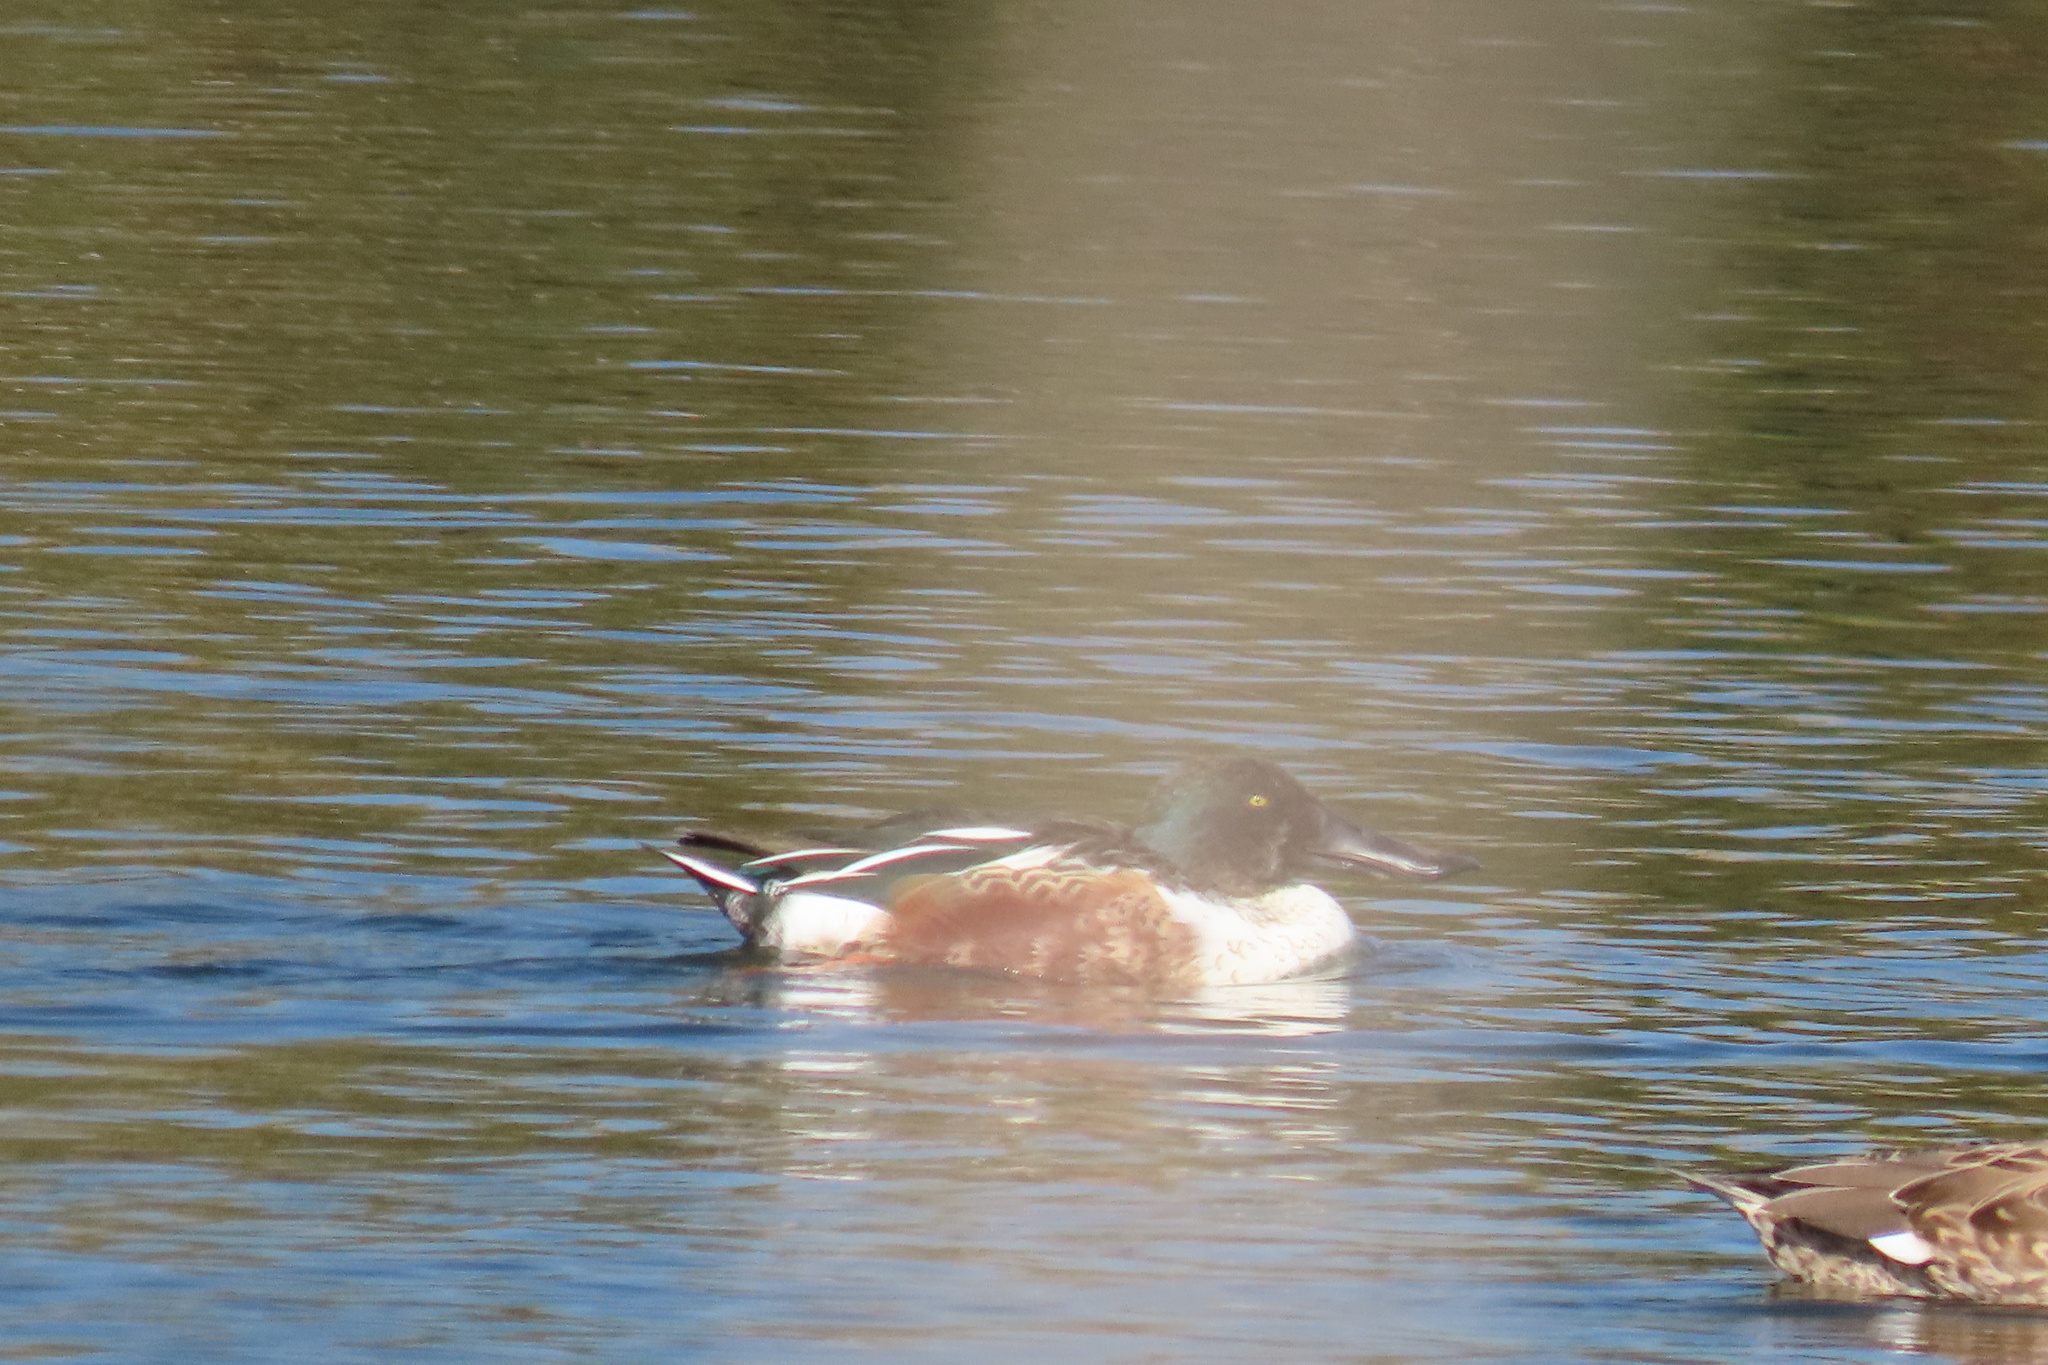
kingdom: Animalia
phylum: Chordata
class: Aves
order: Anseriformes
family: Anatidae
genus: Spatula
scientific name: Spatula clypeata
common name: Northern shoveler
